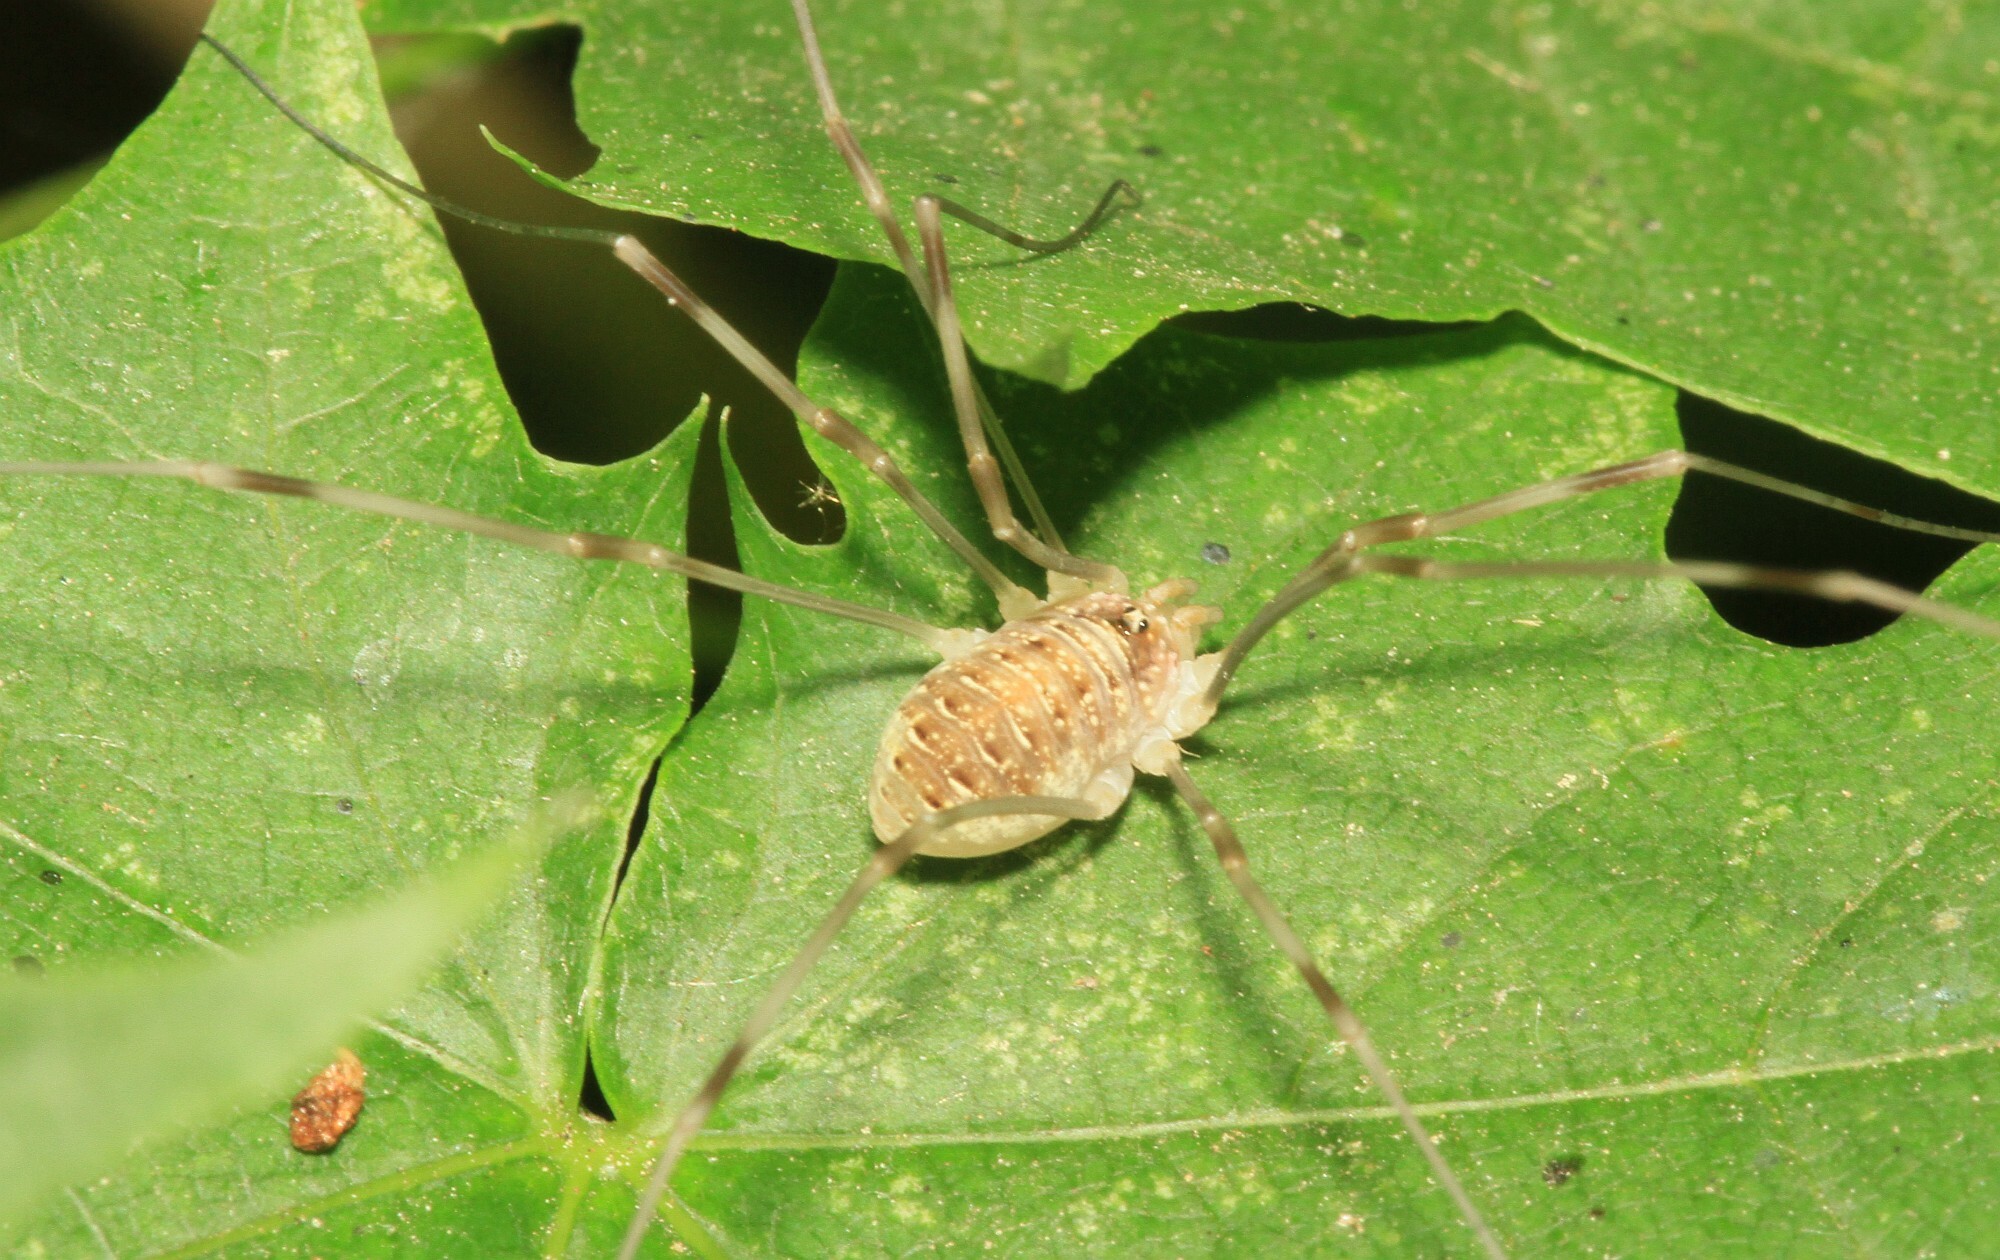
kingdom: Animalia
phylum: Arthropoda
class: Arachnida
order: Opiliones
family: Phalangiidae
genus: Opilio
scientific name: Opilio canestrinii
